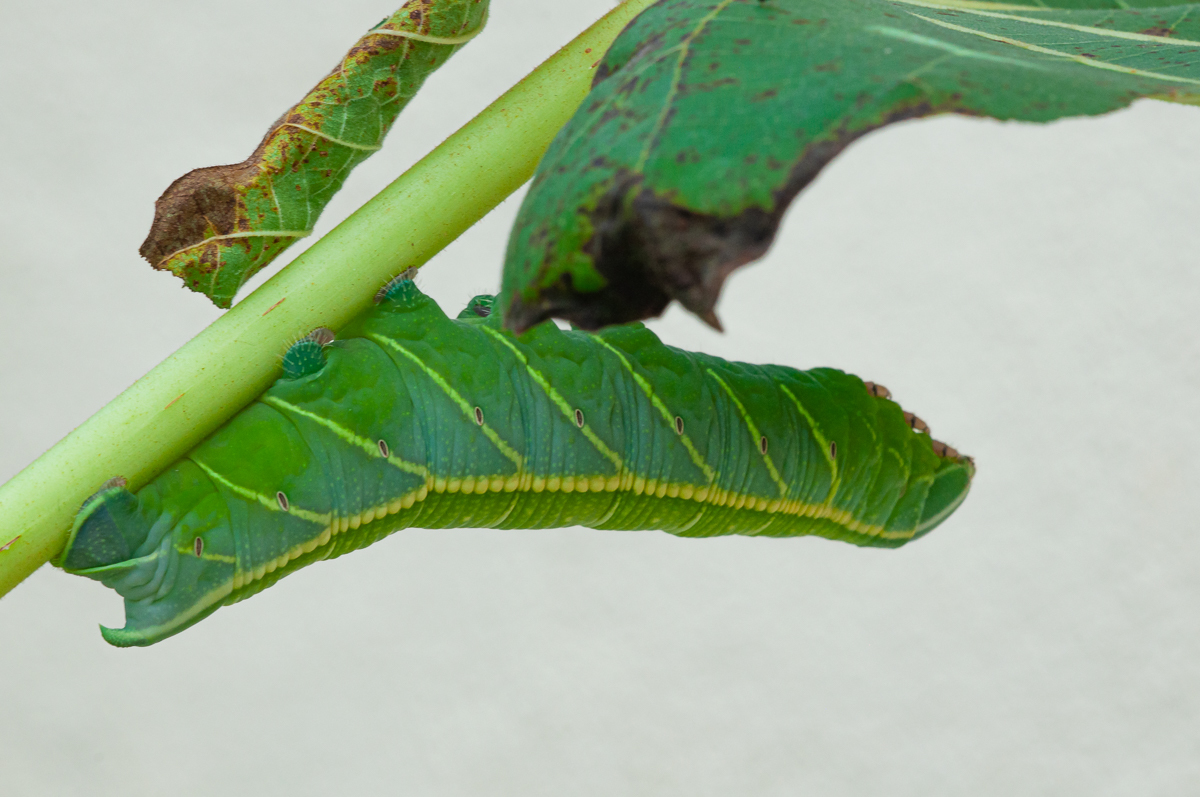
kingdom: Animalia
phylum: Arthropoda
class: Insecta
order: Lepidoptera
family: Sphingidae
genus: Pachylia
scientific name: Pachylia ficus
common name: Fig sphinx
